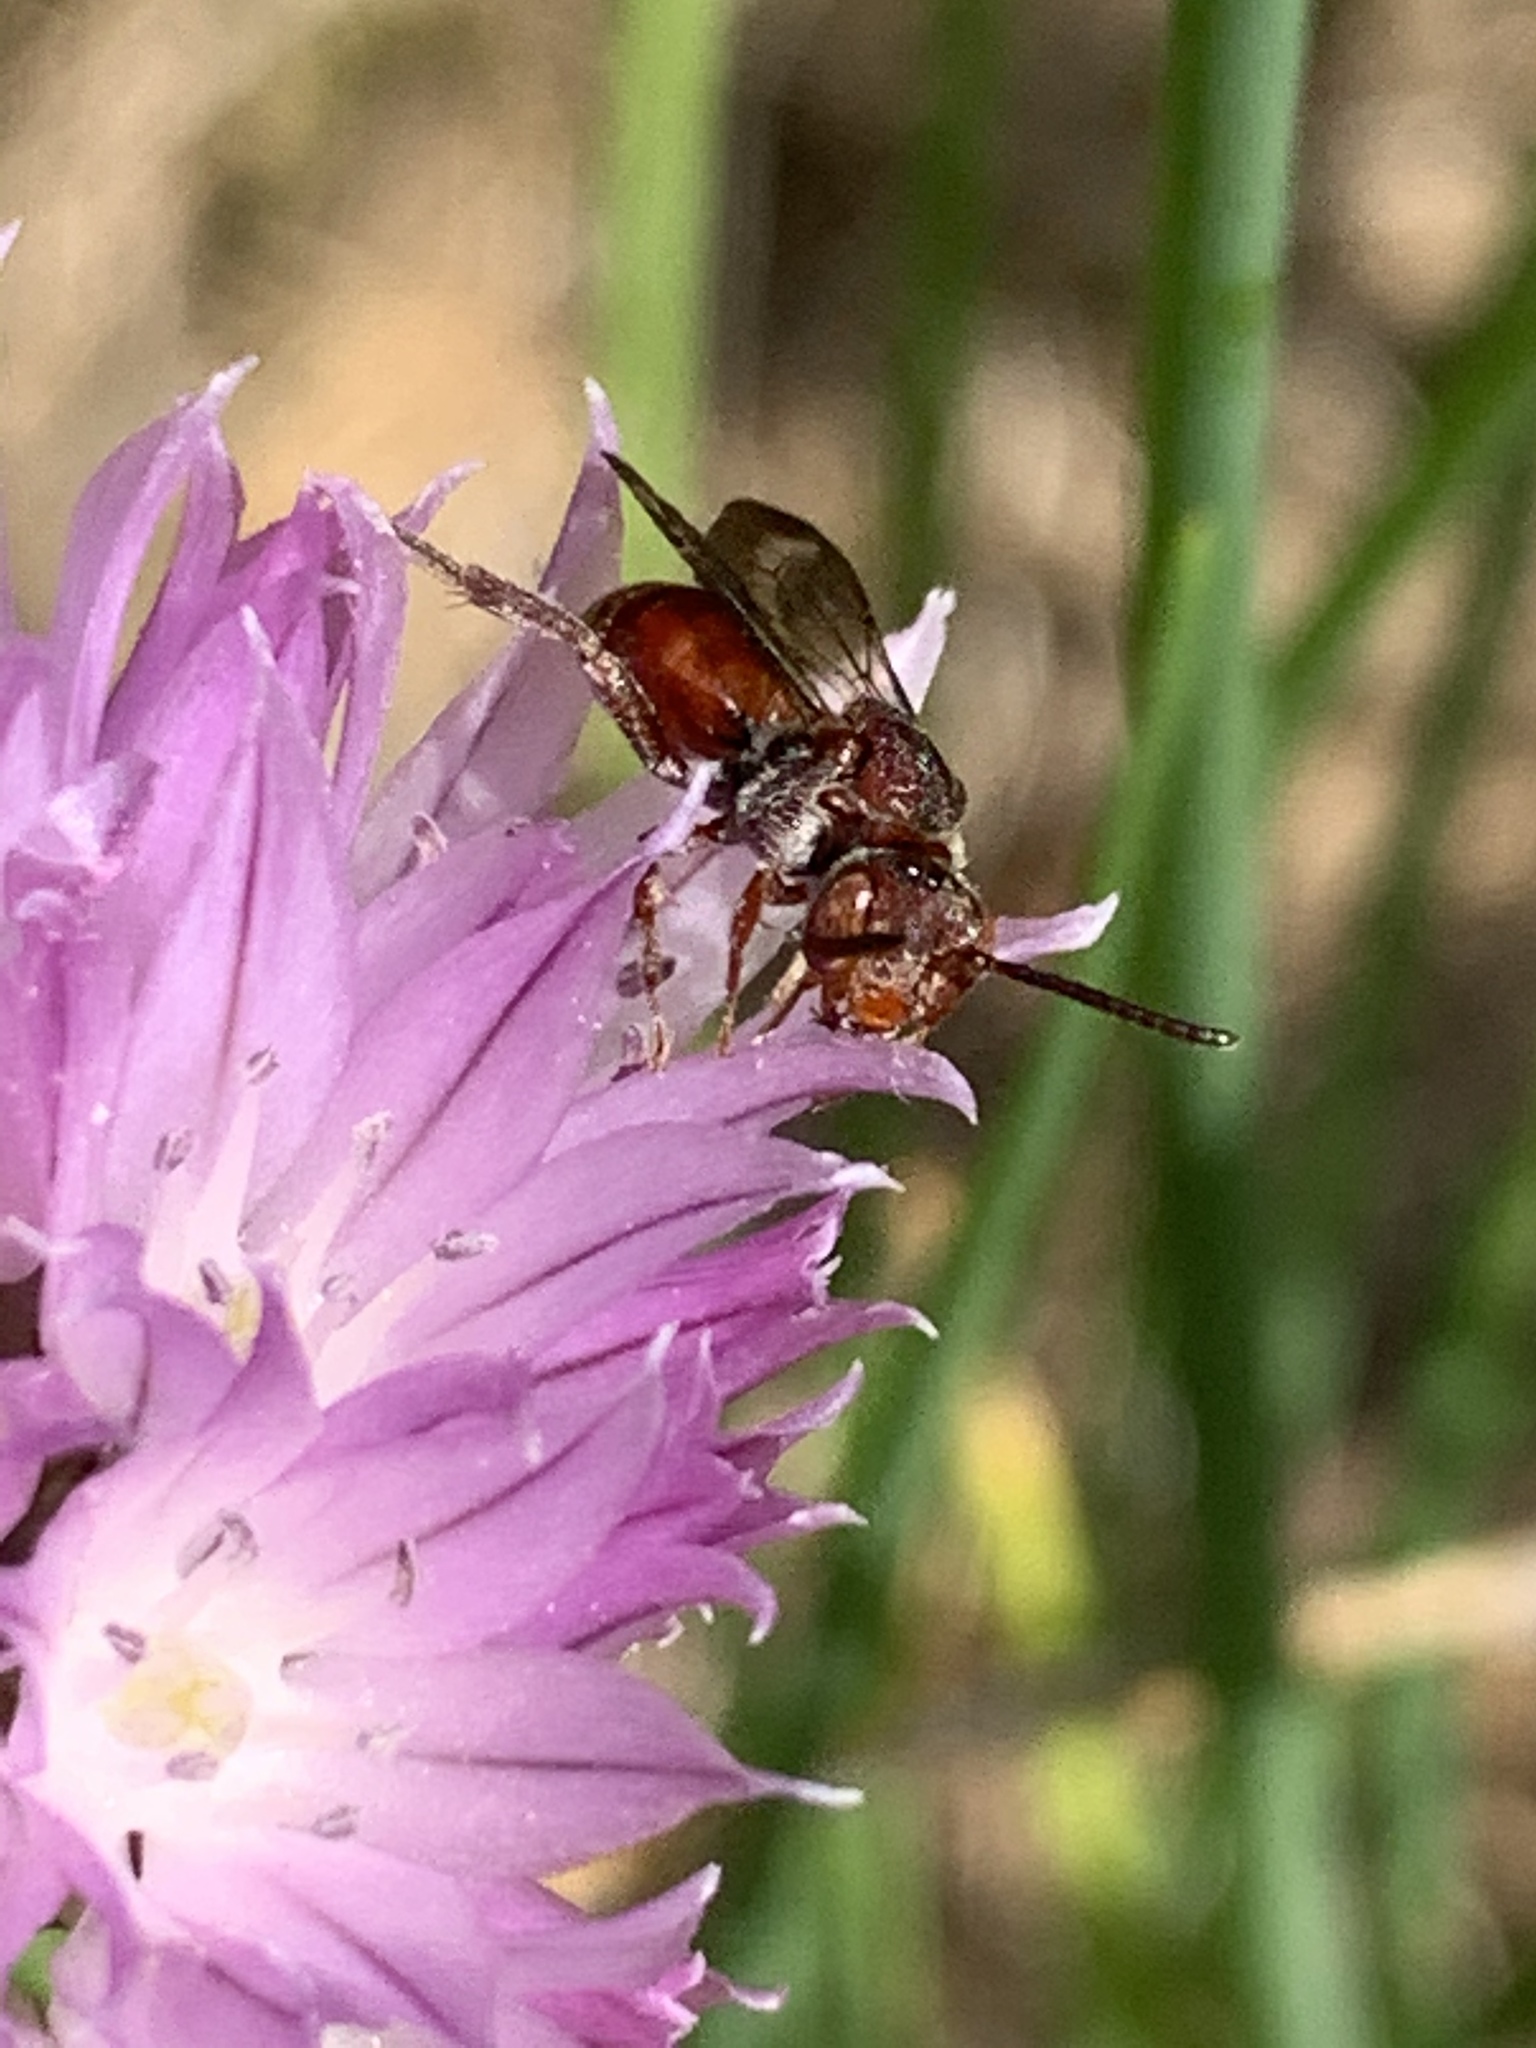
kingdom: Animalia
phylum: Arthropoda
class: Insecta
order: Hymenoptera
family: Apidae
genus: Nomada
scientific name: Nomada
